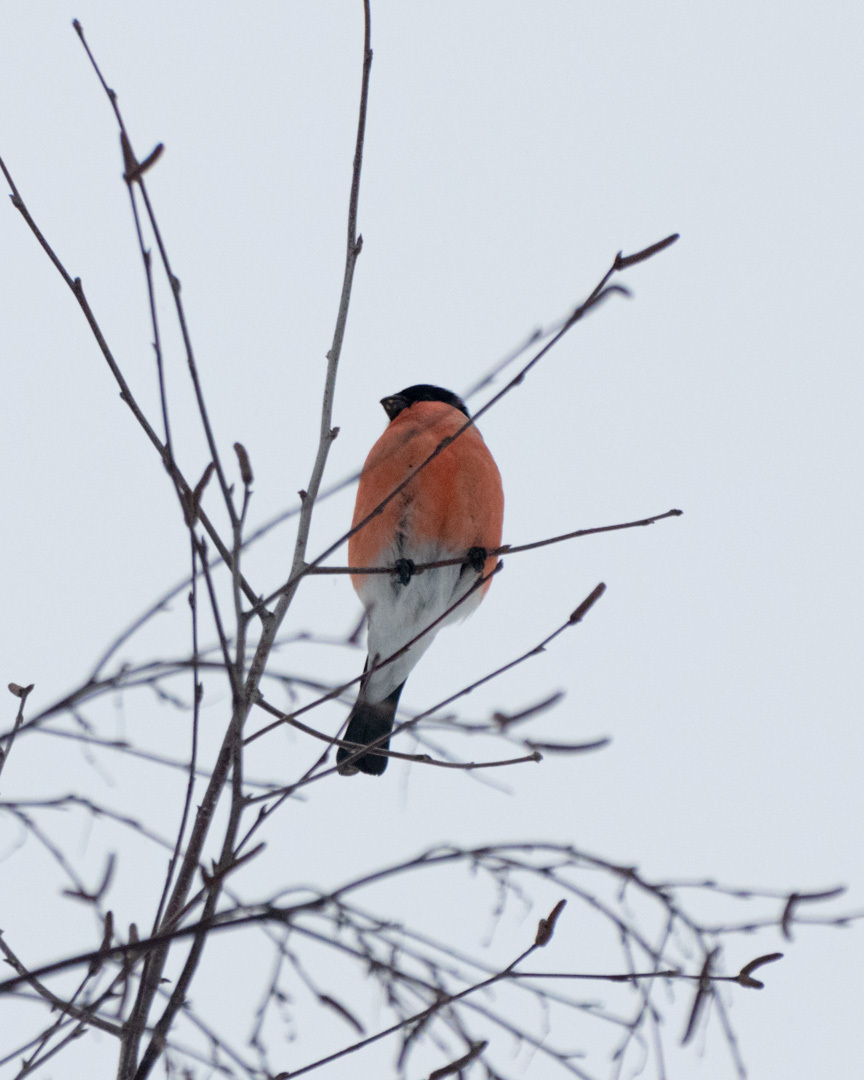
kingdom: Animalia
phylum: Chordata
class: Aves
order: Passeriformes
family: Fringillidae
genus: Pyrrhula
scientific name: Pyrrhula pyrrhula
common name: Eurasian bullfinch
